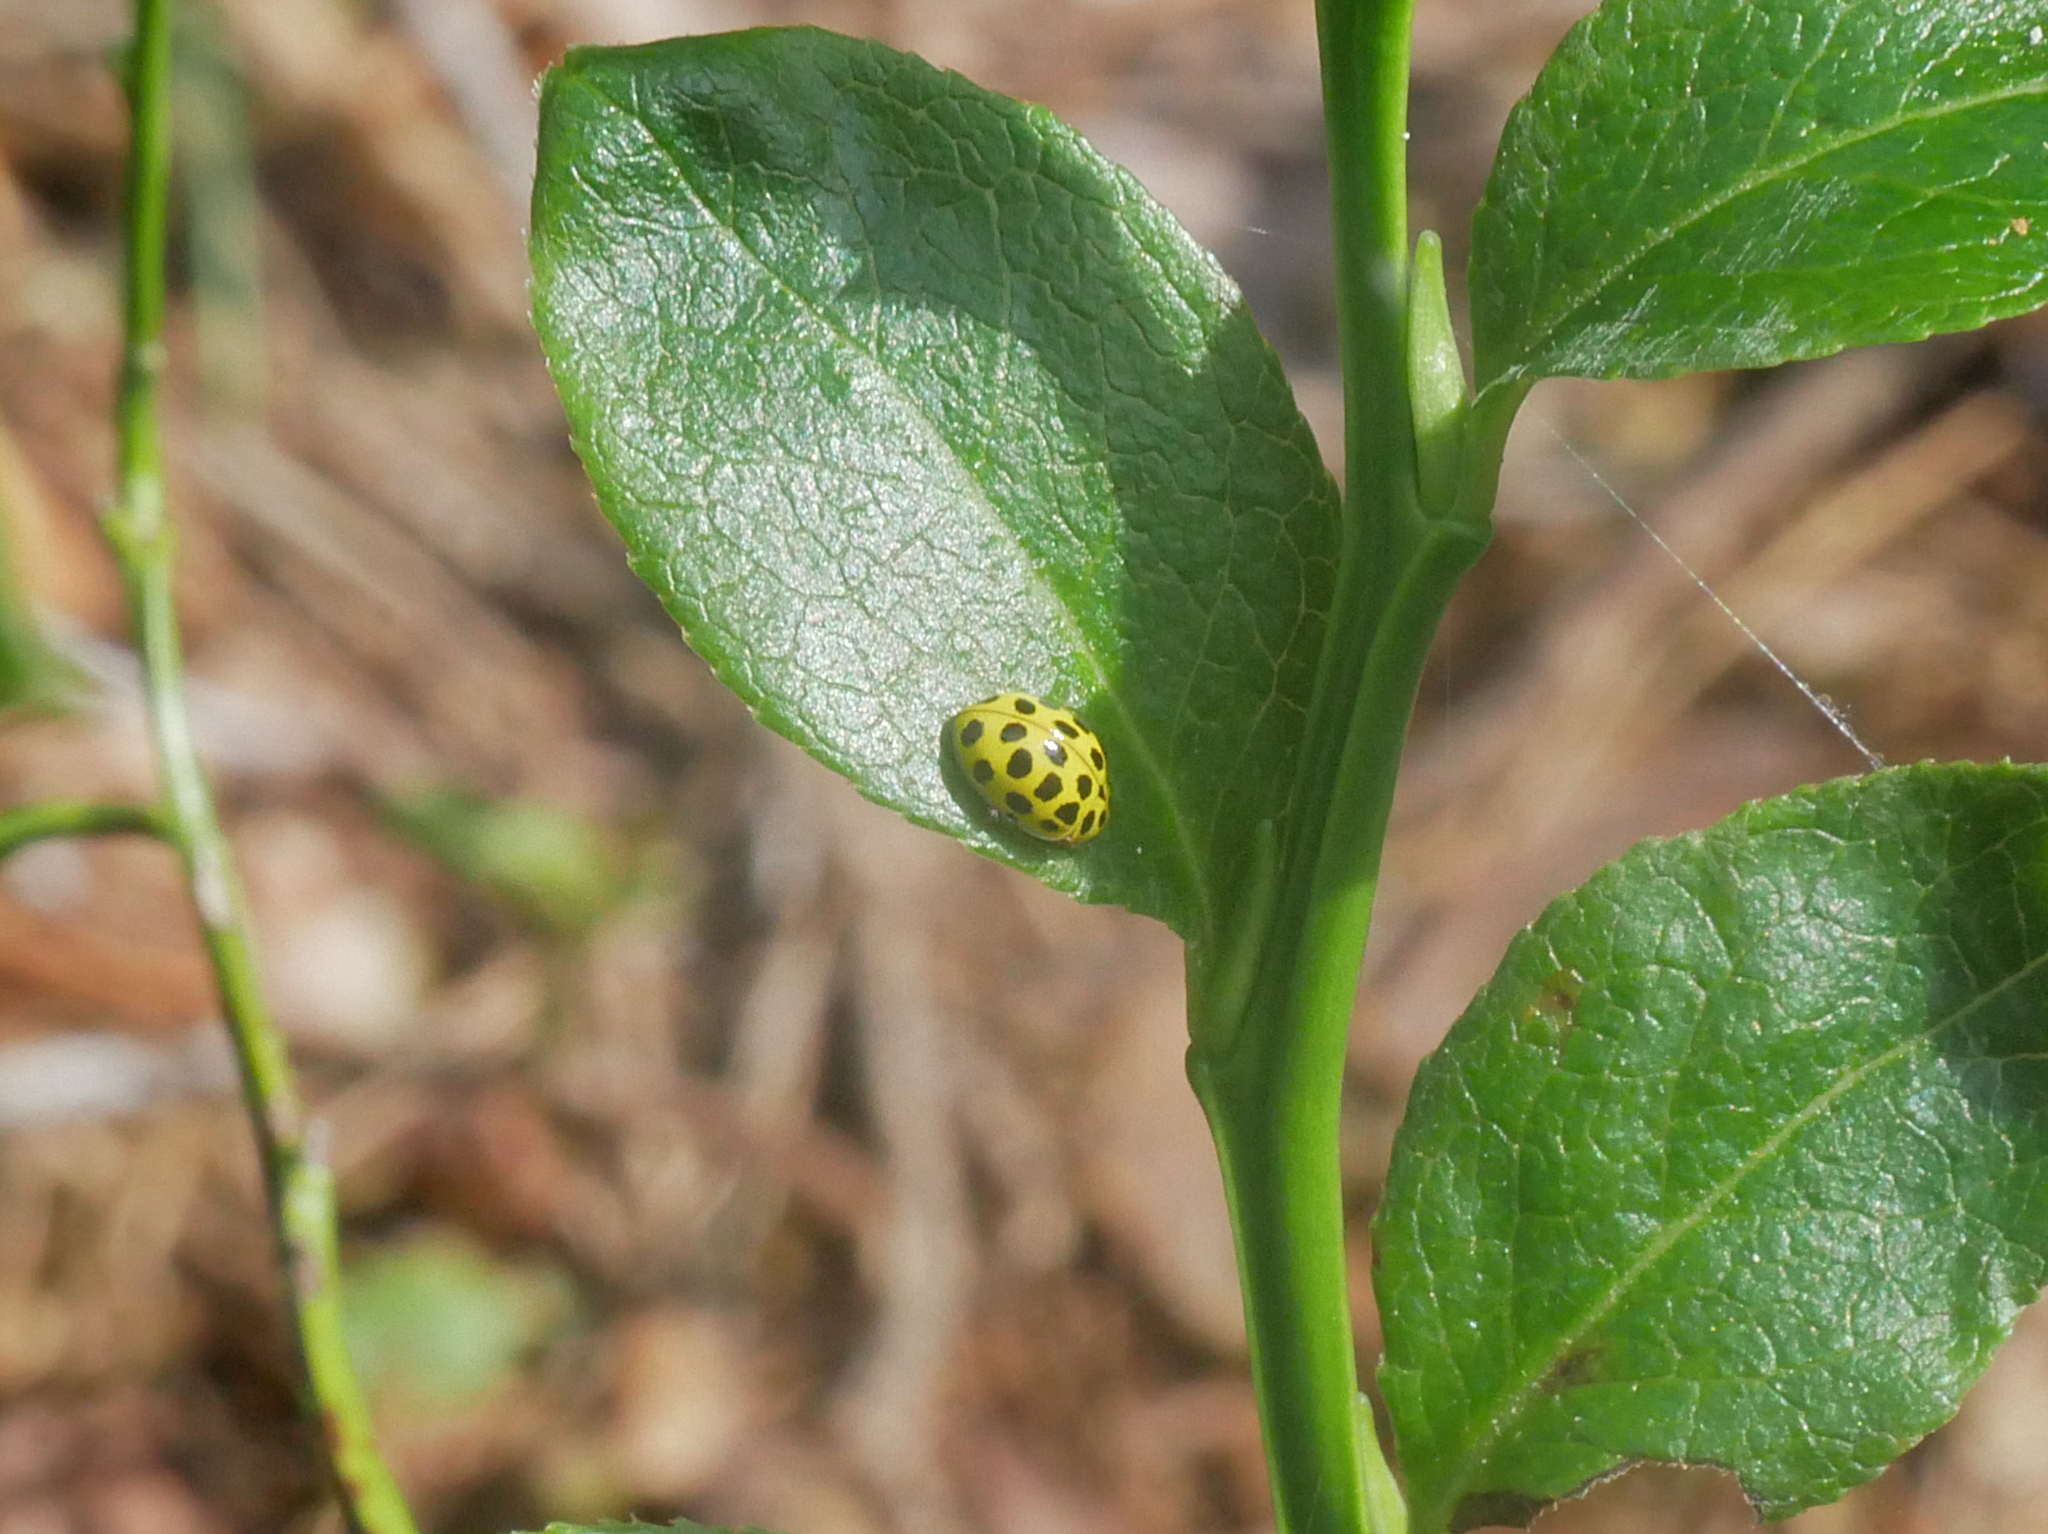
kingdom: Animalia
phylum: Arthropoda
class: Insecta
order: Coleoptera
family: Coccinellidae
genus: Psyllobora
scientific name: Psyllobora vigintiduopunctata
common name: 22-spot ladybird
